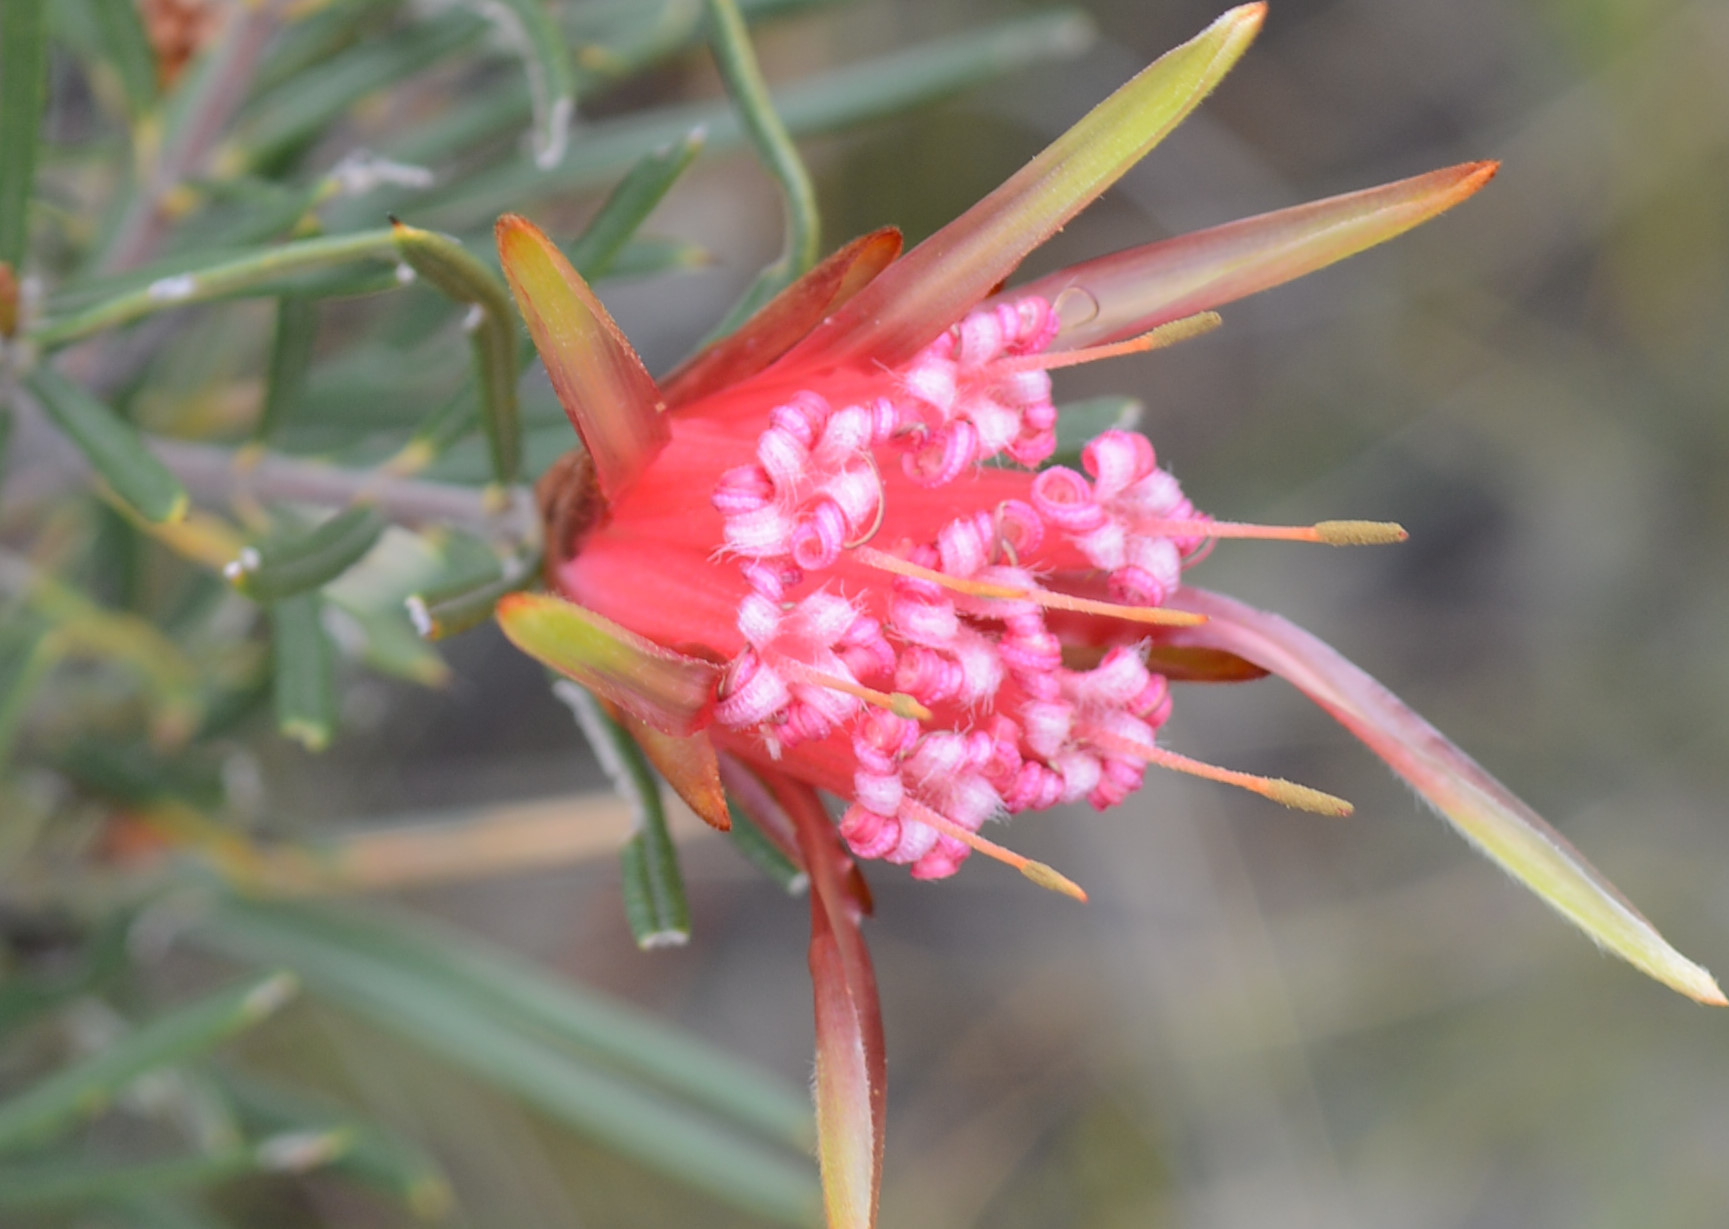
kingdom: Plantae
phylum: Tracheophyta
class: Magnoliopsida
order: Proteales
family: Proteaceae
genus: Lambertia
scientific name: Lambertia formosa
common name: Mountain-devil
